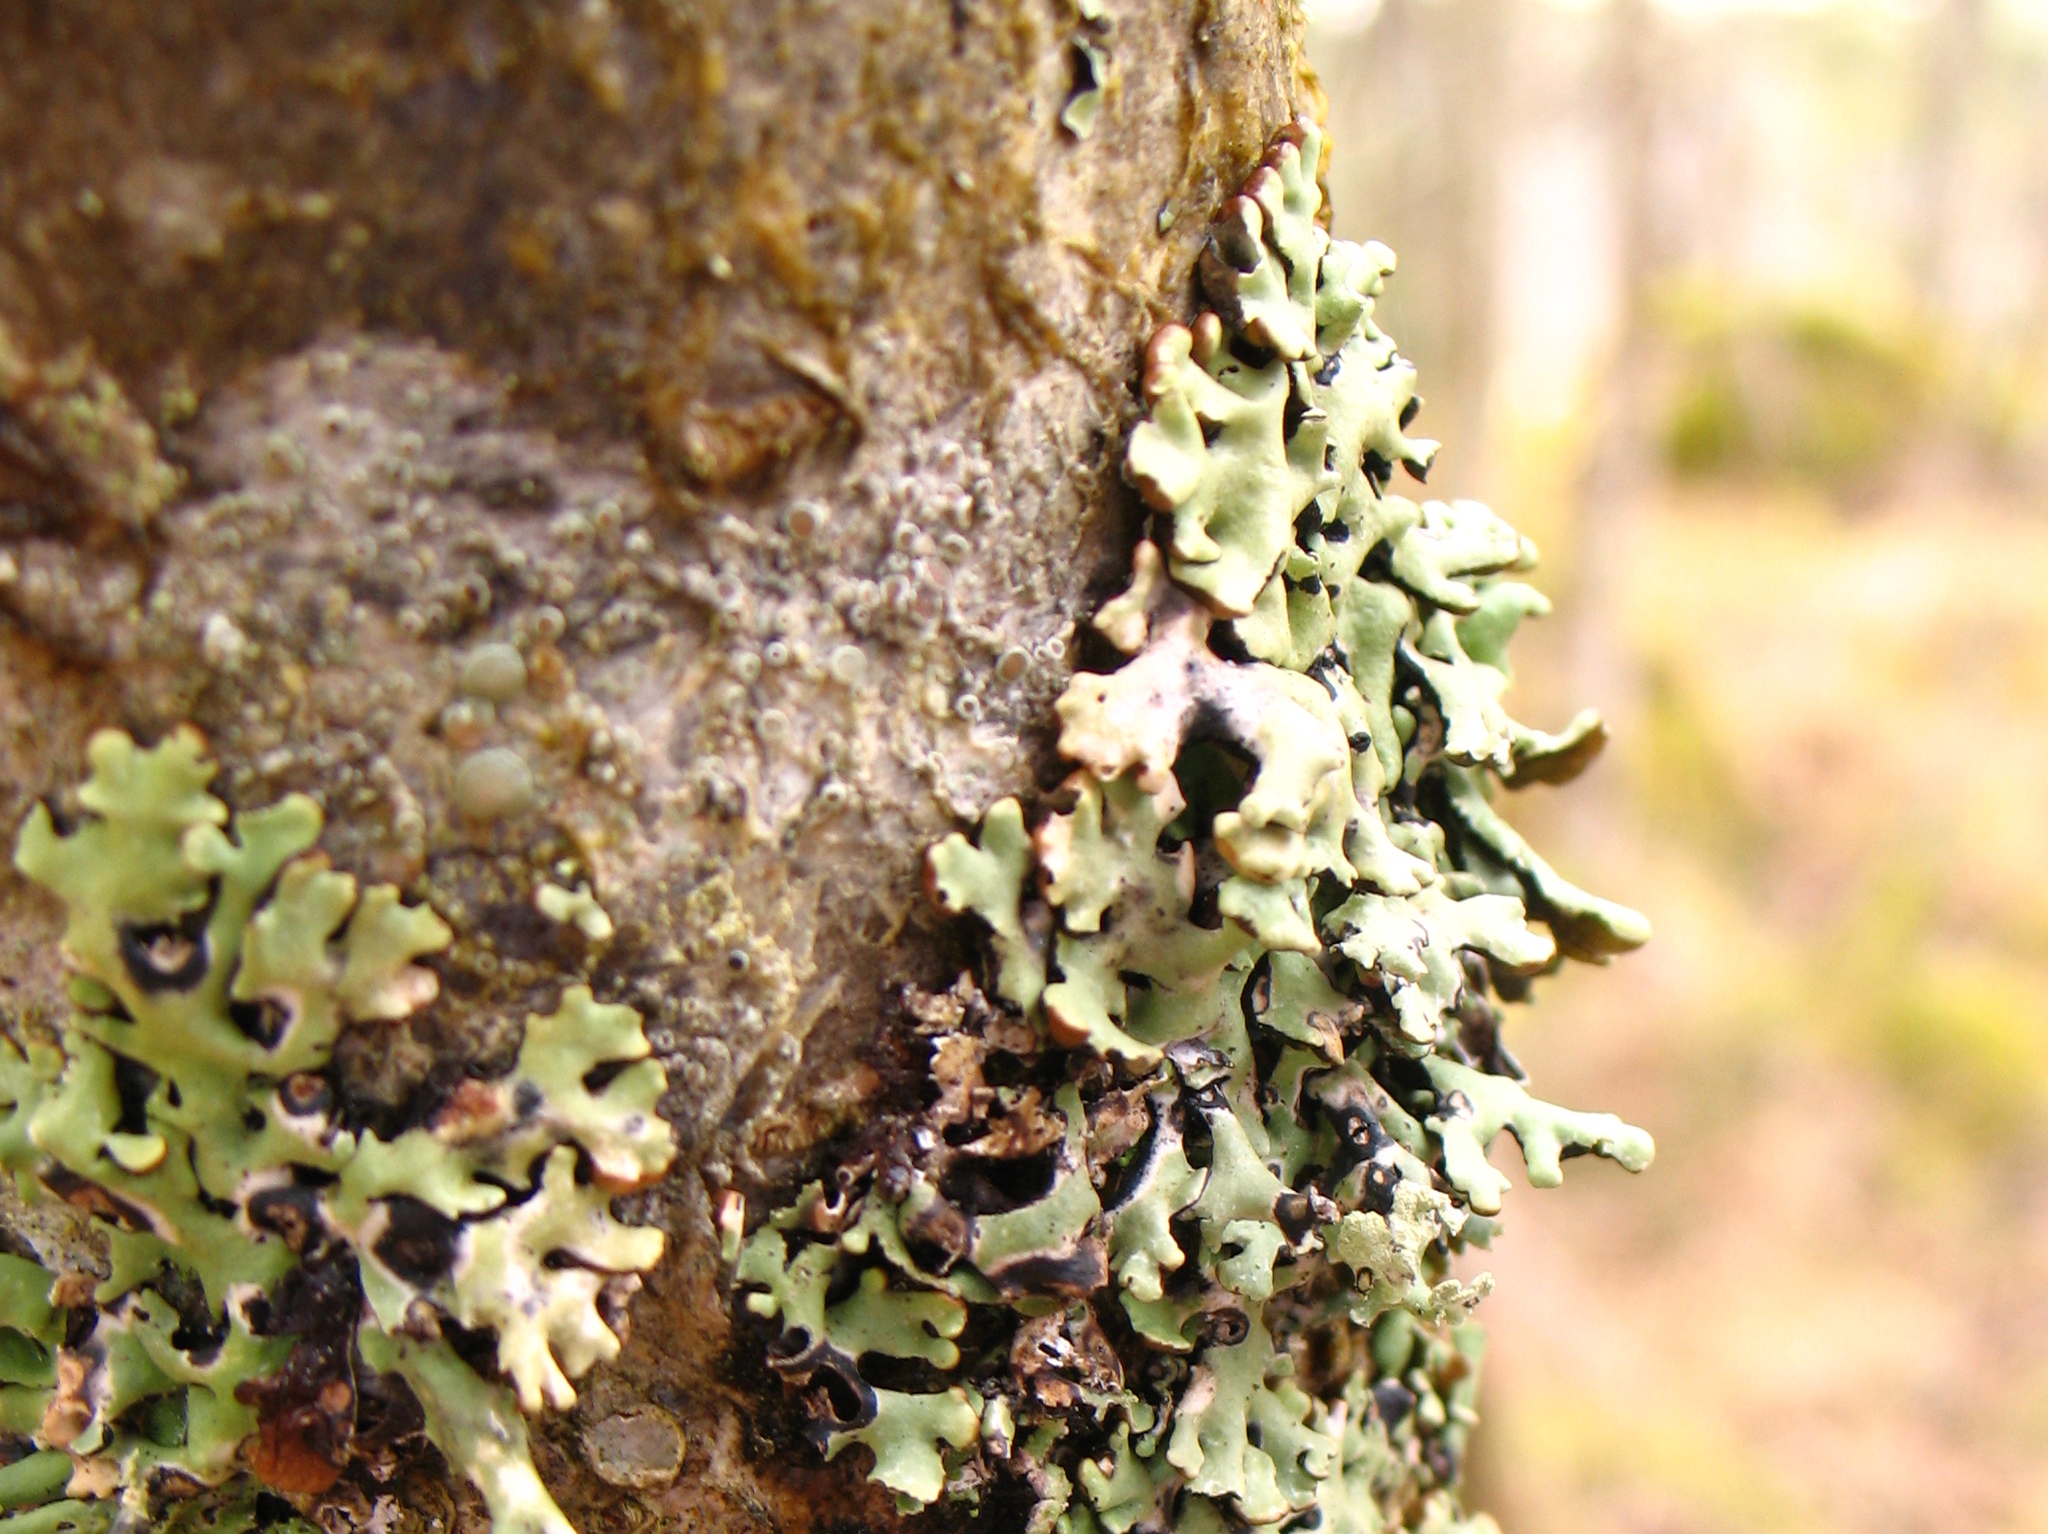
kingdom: Fungi
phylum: Ascomycota
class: Lecanoromycetes
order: Lecanorales
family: Parmeliaceae
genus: Hypogymnia
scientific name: Hypogymnia physodes
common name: Dark crottle
